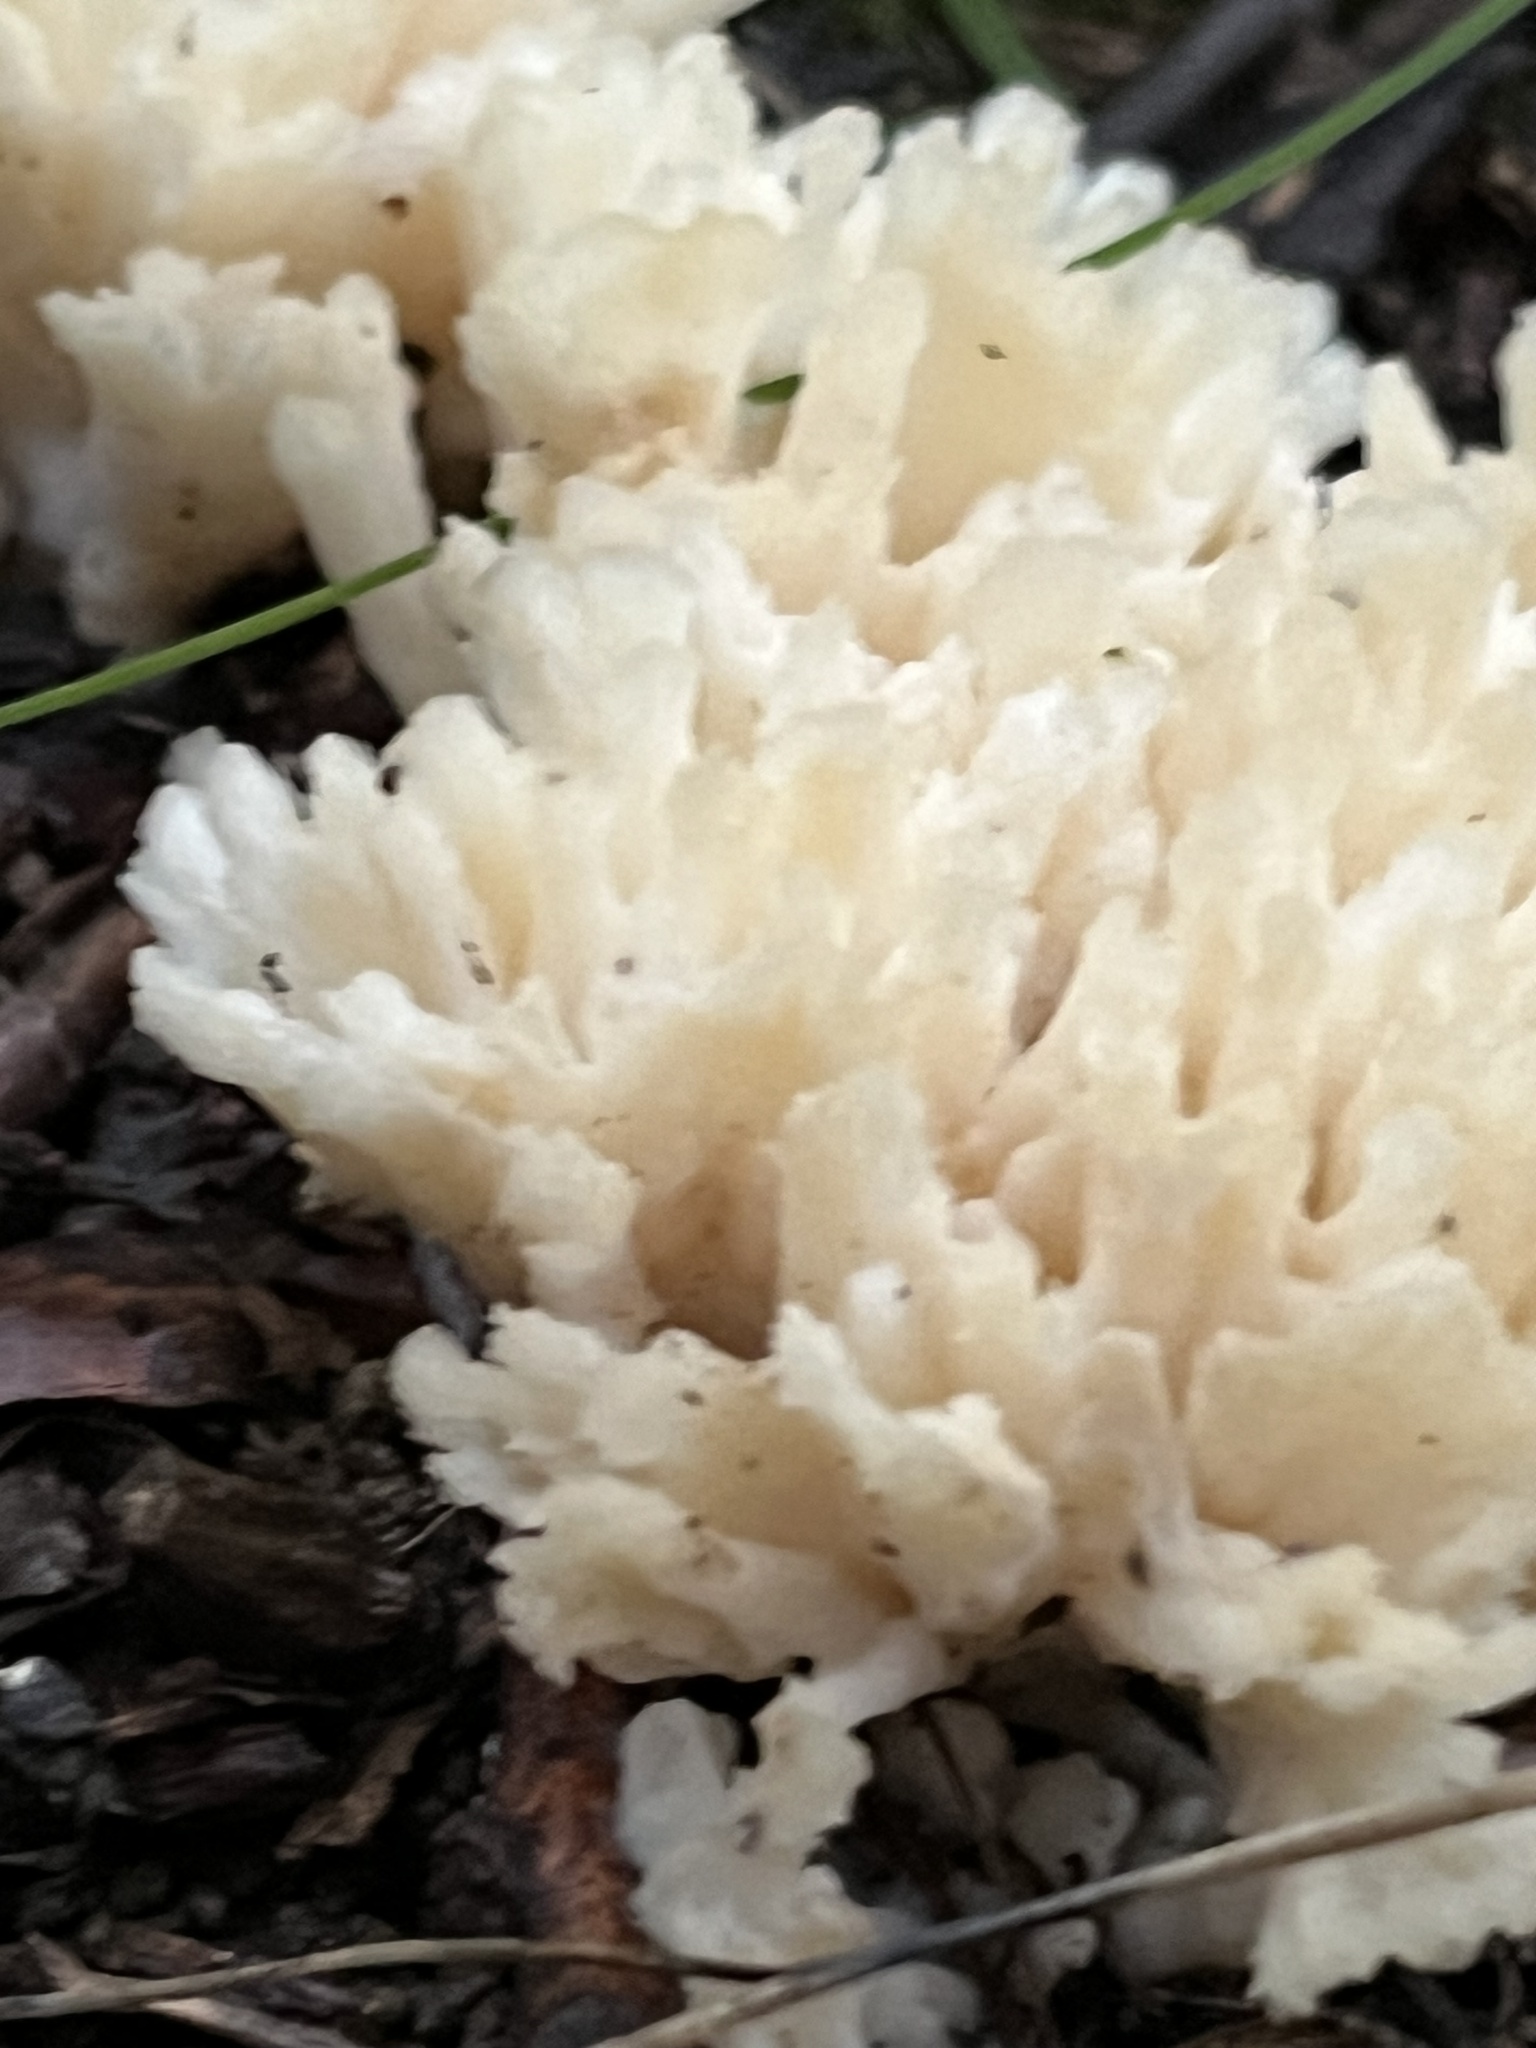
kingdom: Fungi
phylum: Basidiomycota
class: Agaricomycetes
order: Sebacinales
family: Sebacinaceae
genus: Sebacina
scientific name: Sebacina schweinitzii
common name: Jellied false coral fungus
